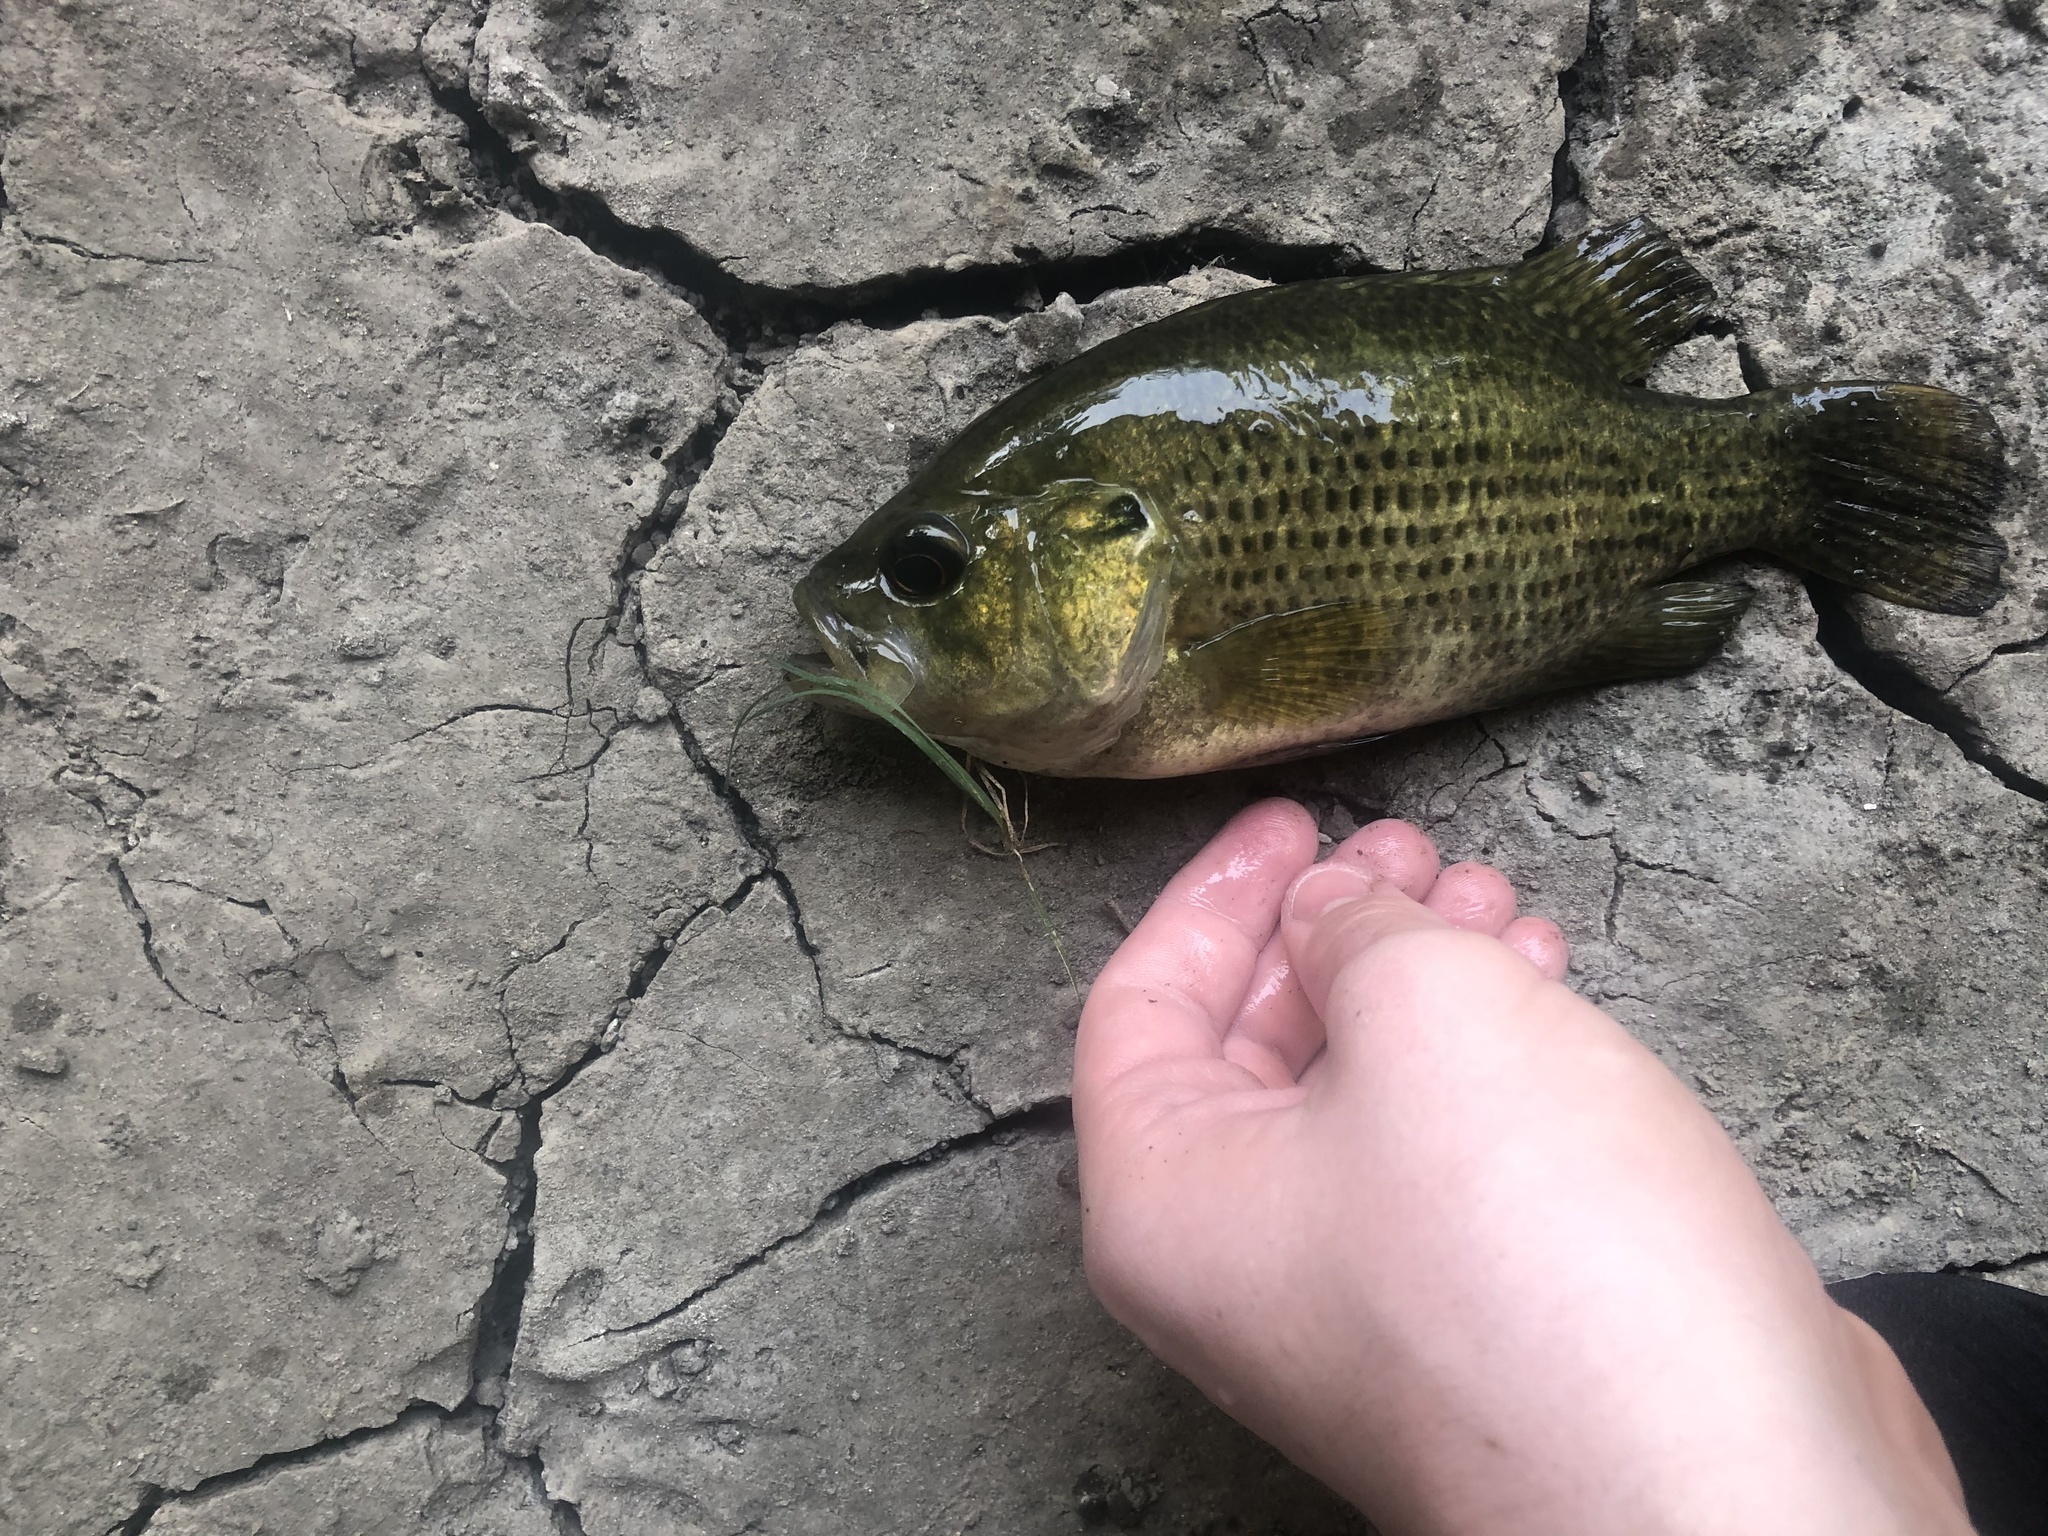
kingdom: Animalia
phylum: Chordata
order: Perciformes
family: Centrarchidae
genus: Ambloplites
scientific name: Ambloplites rupestris
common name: Rock bass
